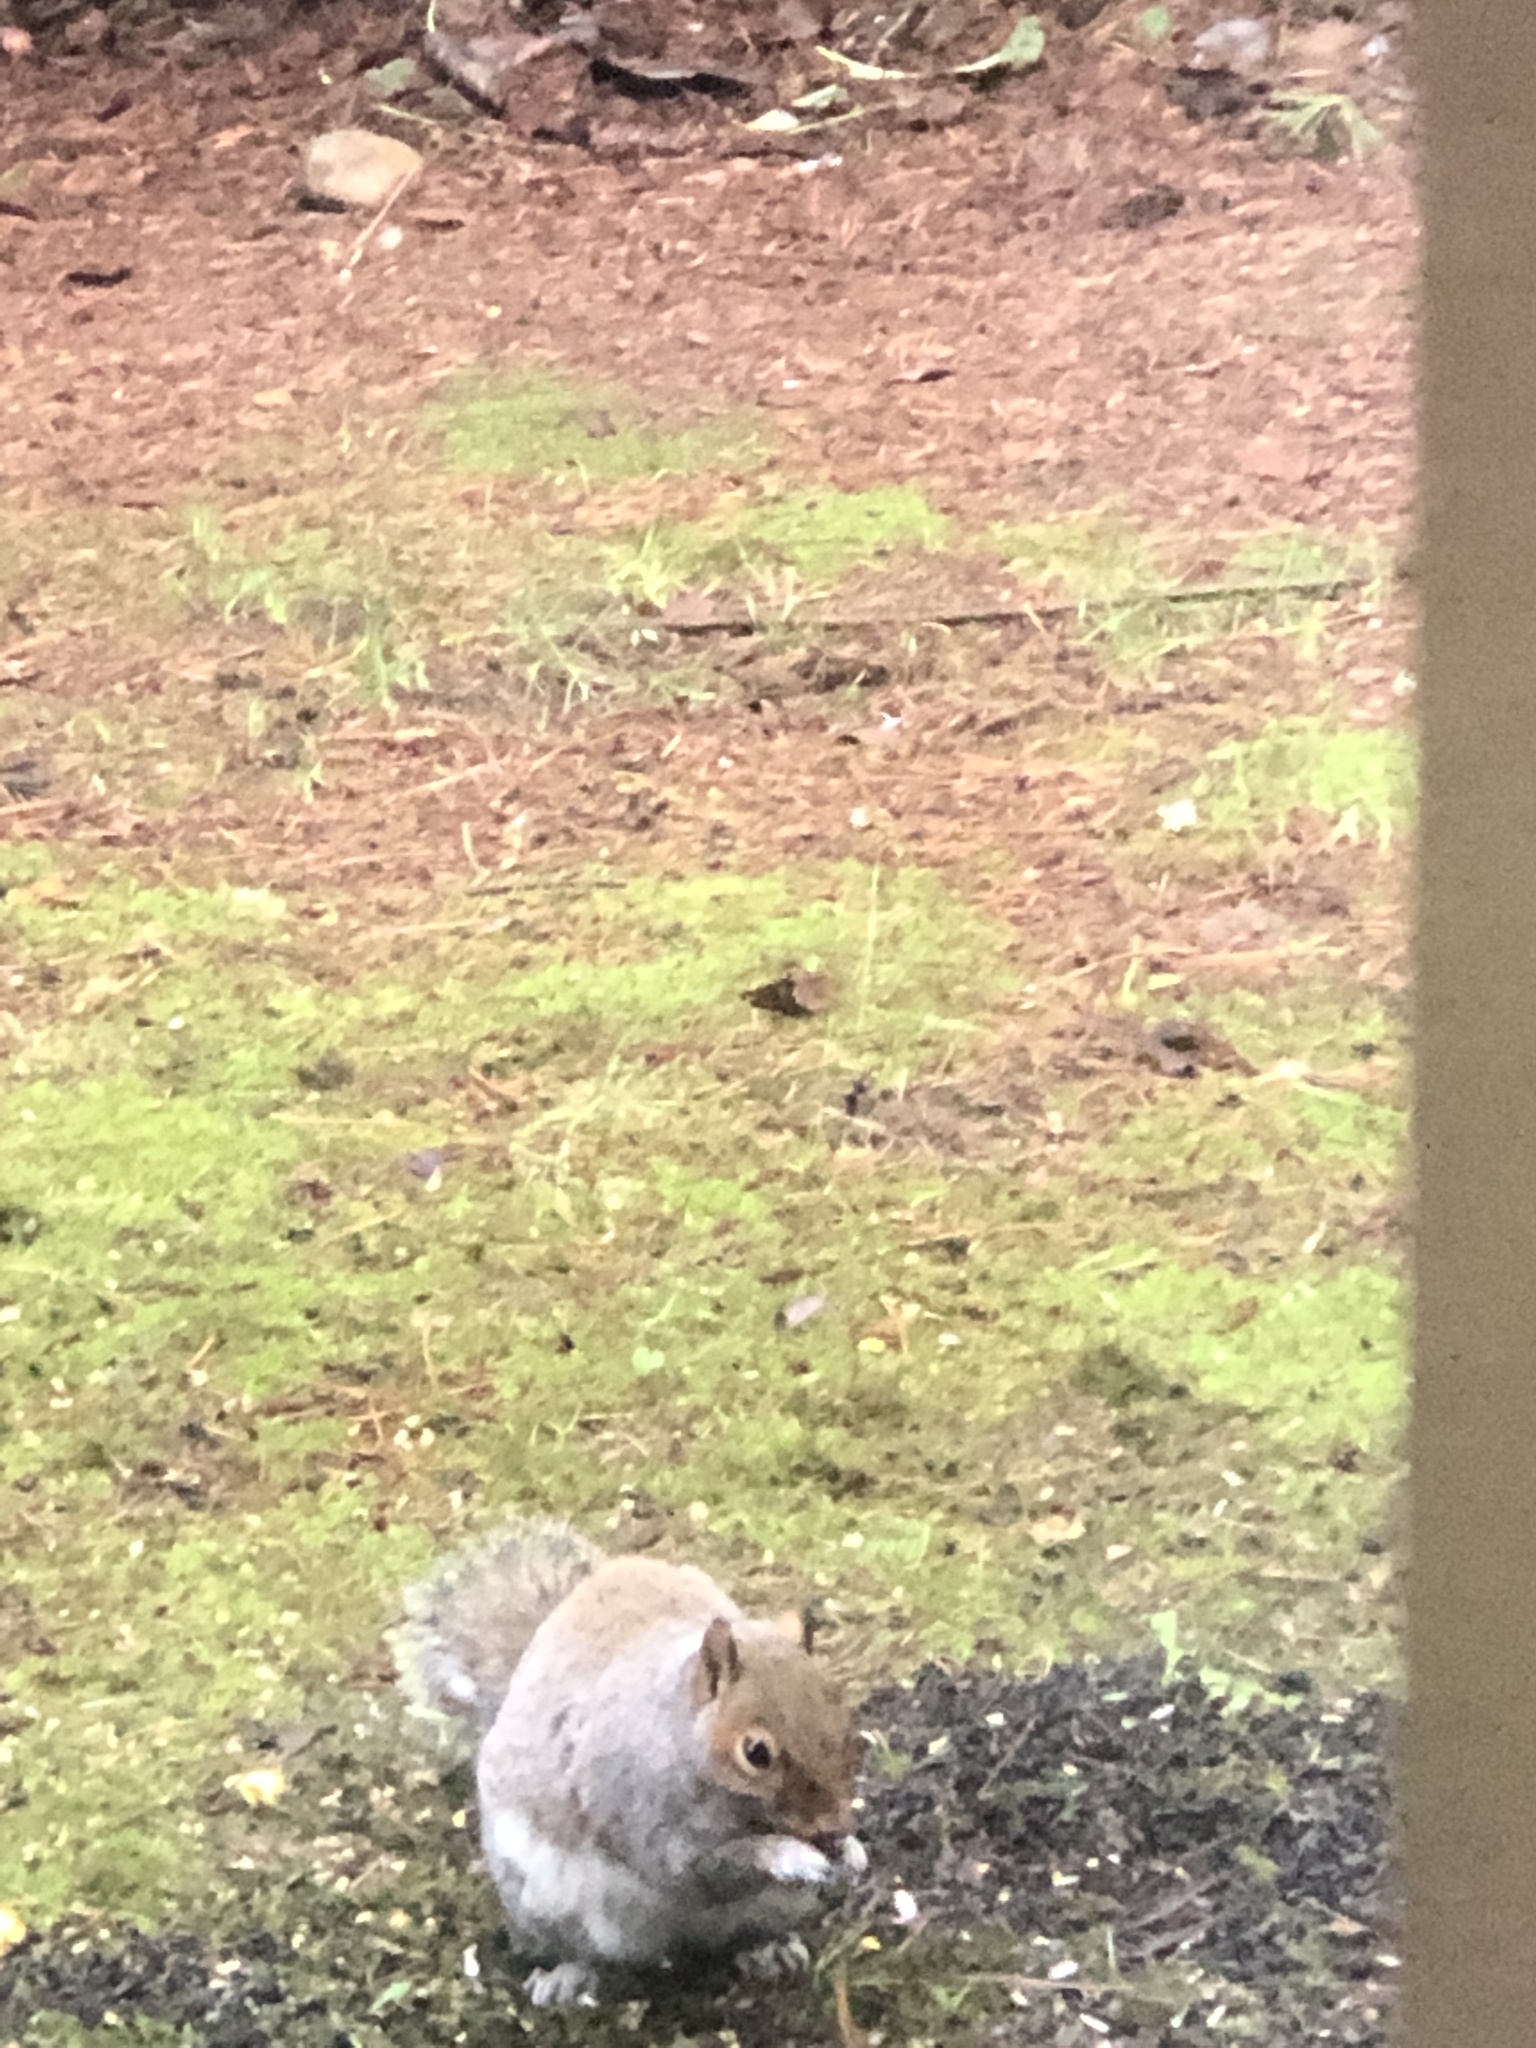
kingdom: Animalia
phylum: Chordata
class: Mammalia
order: Rodentia
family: Sciuridae
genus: Sciurus
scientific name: Sciurus carolinensis
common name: Eastern gray squirrel
